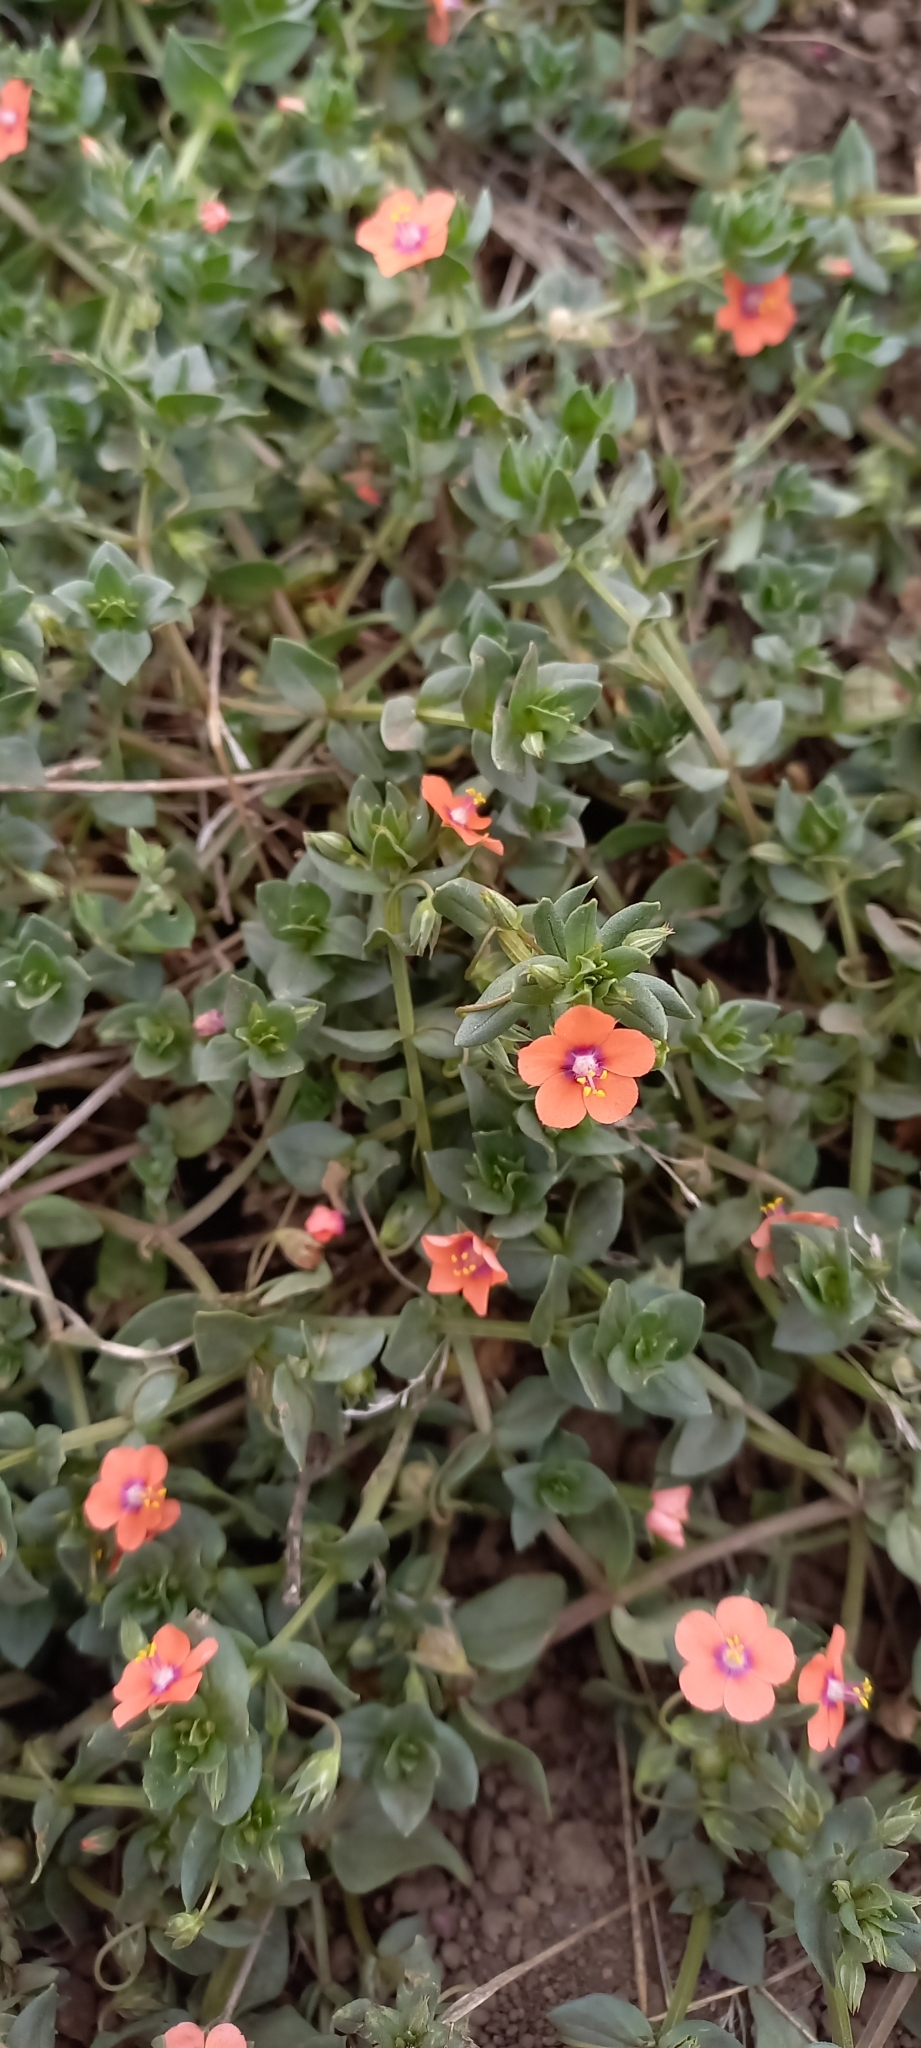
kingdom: Plantae
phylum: Tracheophyta
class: Magnoliopsida
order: Ericales
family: Primulaceae
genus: Lysimachia
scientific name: Lysimachia arvensis
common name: Scarlet pimpernel
